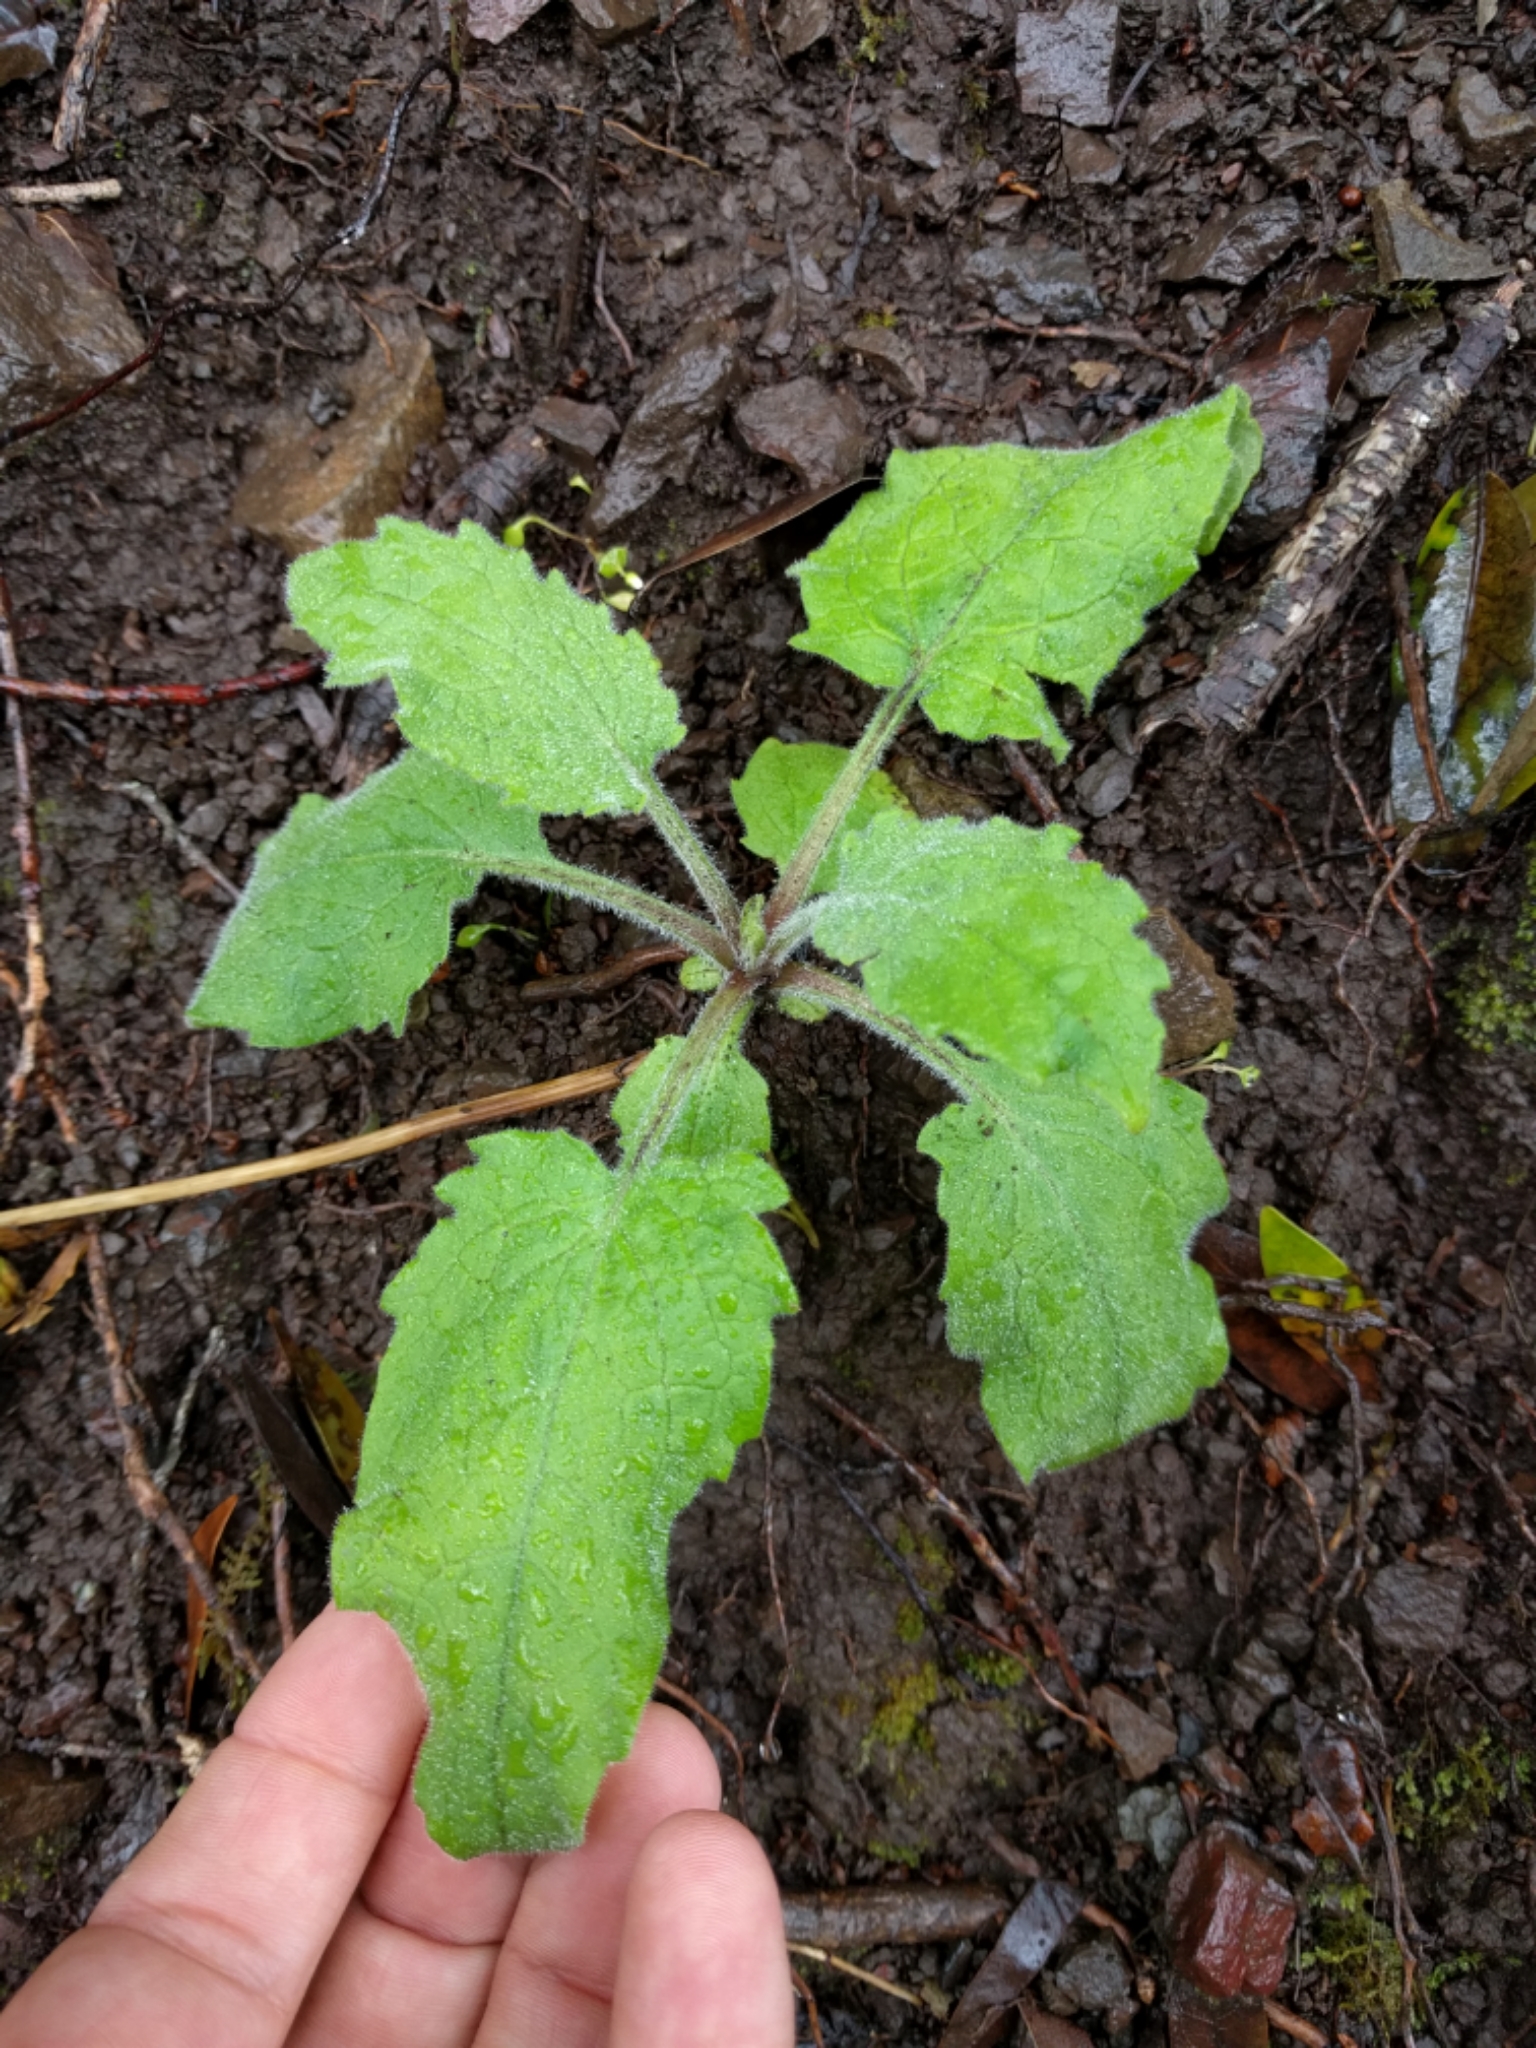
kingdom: Plantae
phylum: Tracheophyta
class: Magnoliopsida
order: Asterales
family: Asteraceae
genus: Arnica
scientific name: Arnica discoidea
